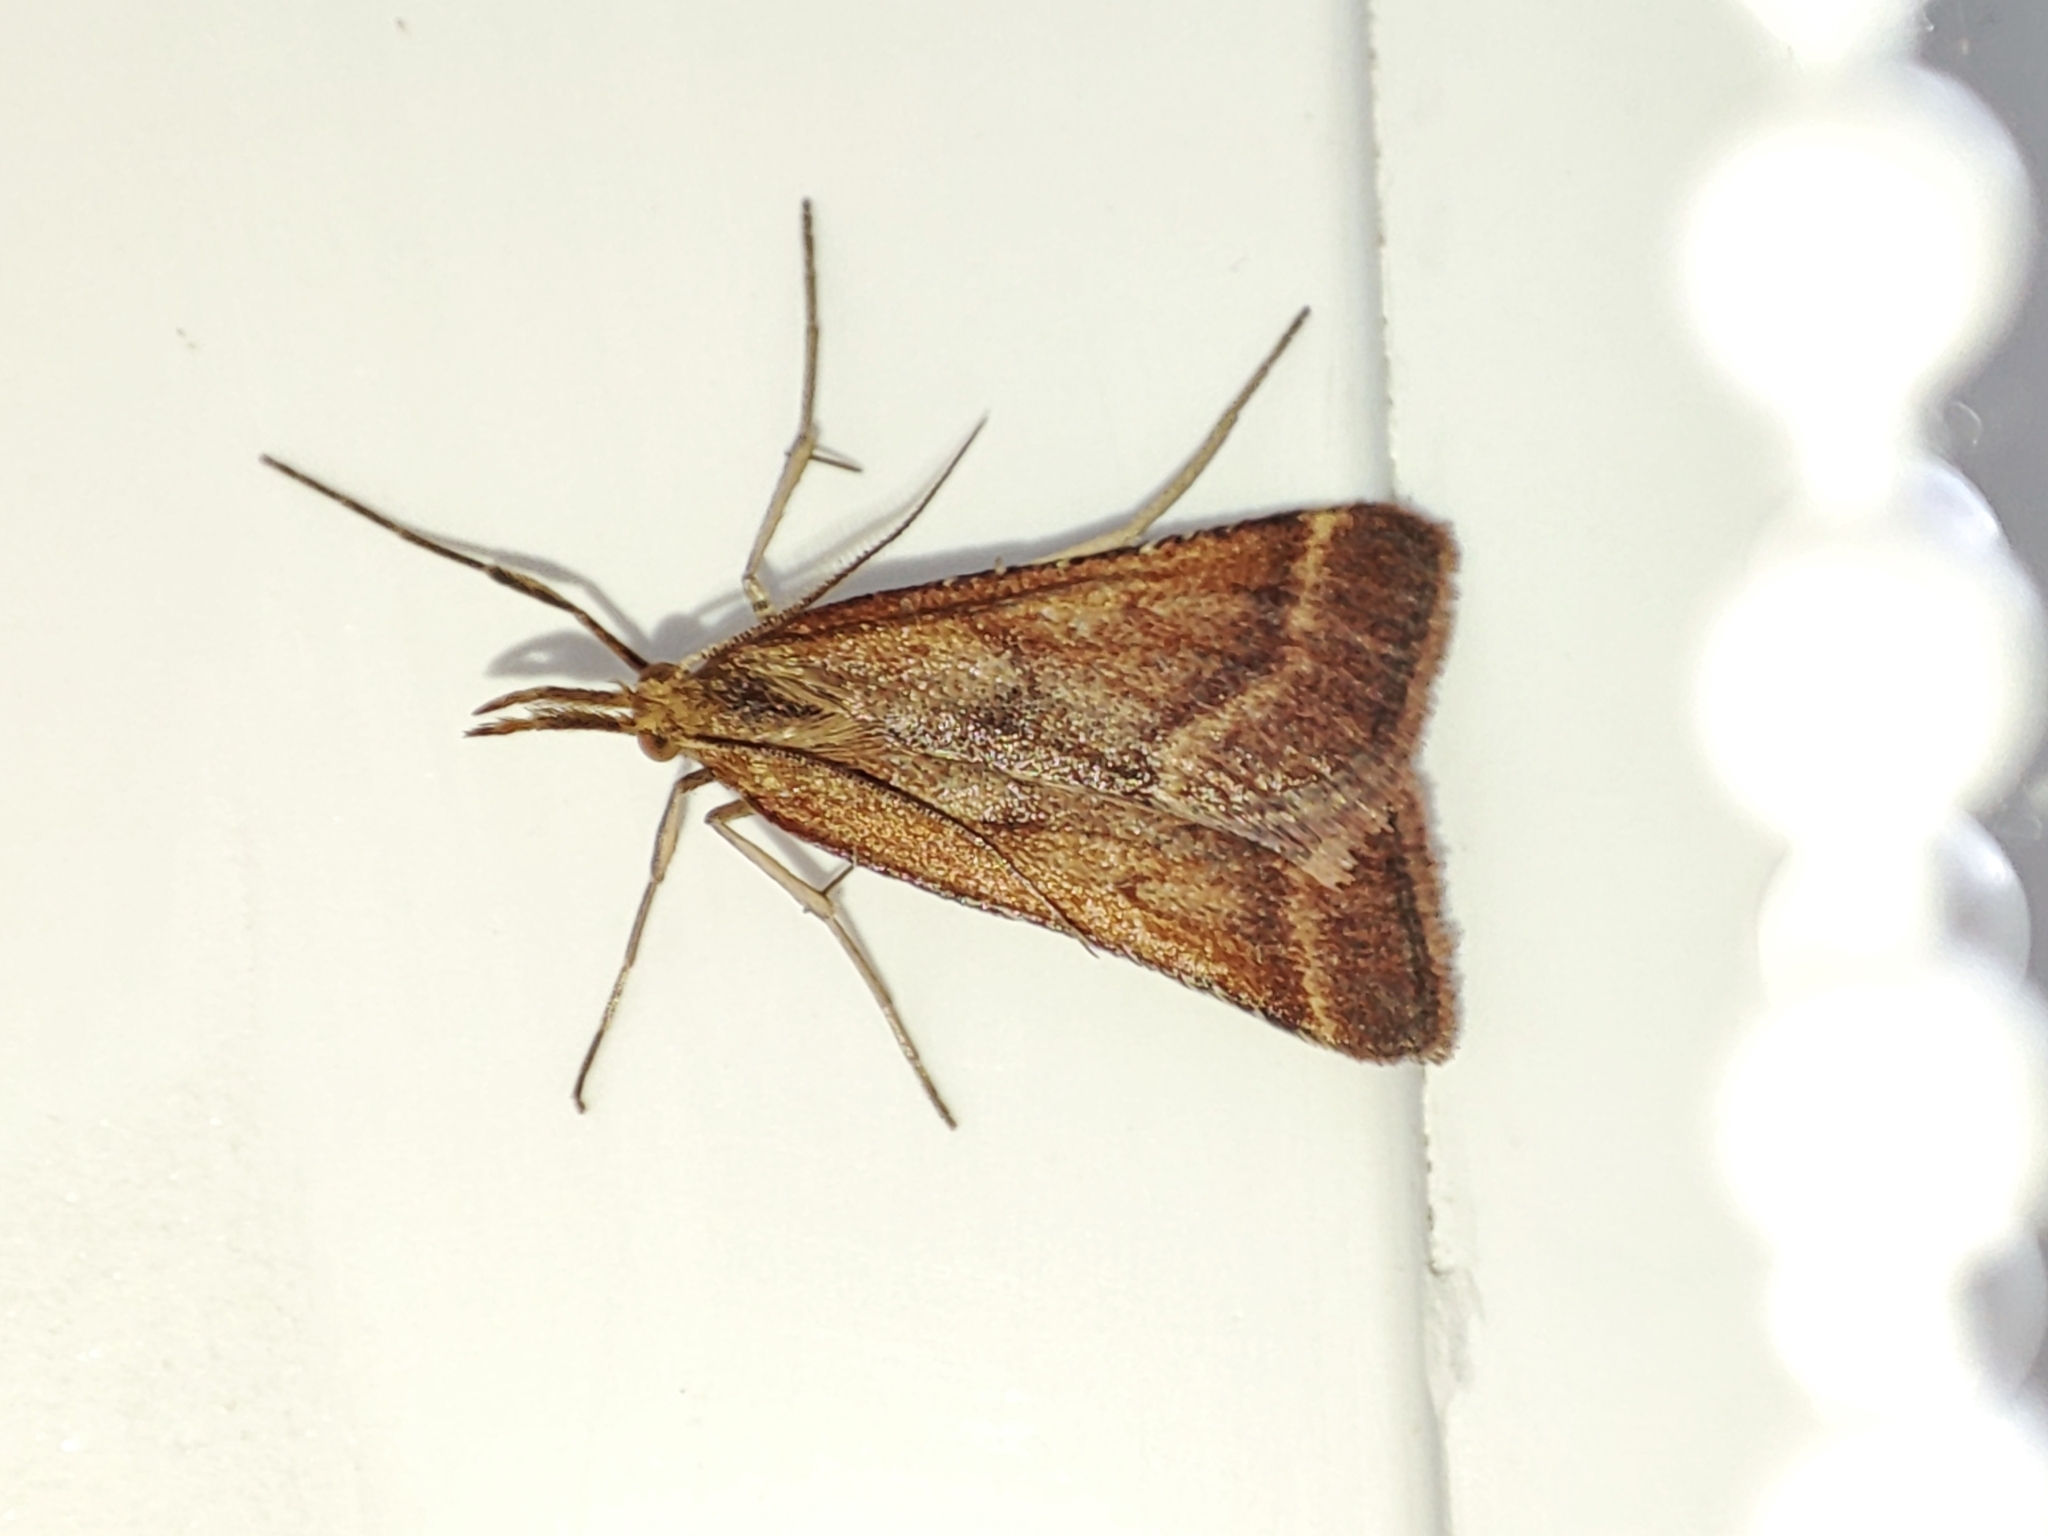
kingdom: Animalia
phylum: Arthropoda
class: Insecta
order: Lepidoptera
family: Pyralidae
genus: Synaphe
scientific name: Synaphe punctalis
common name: Long-legged tabby
